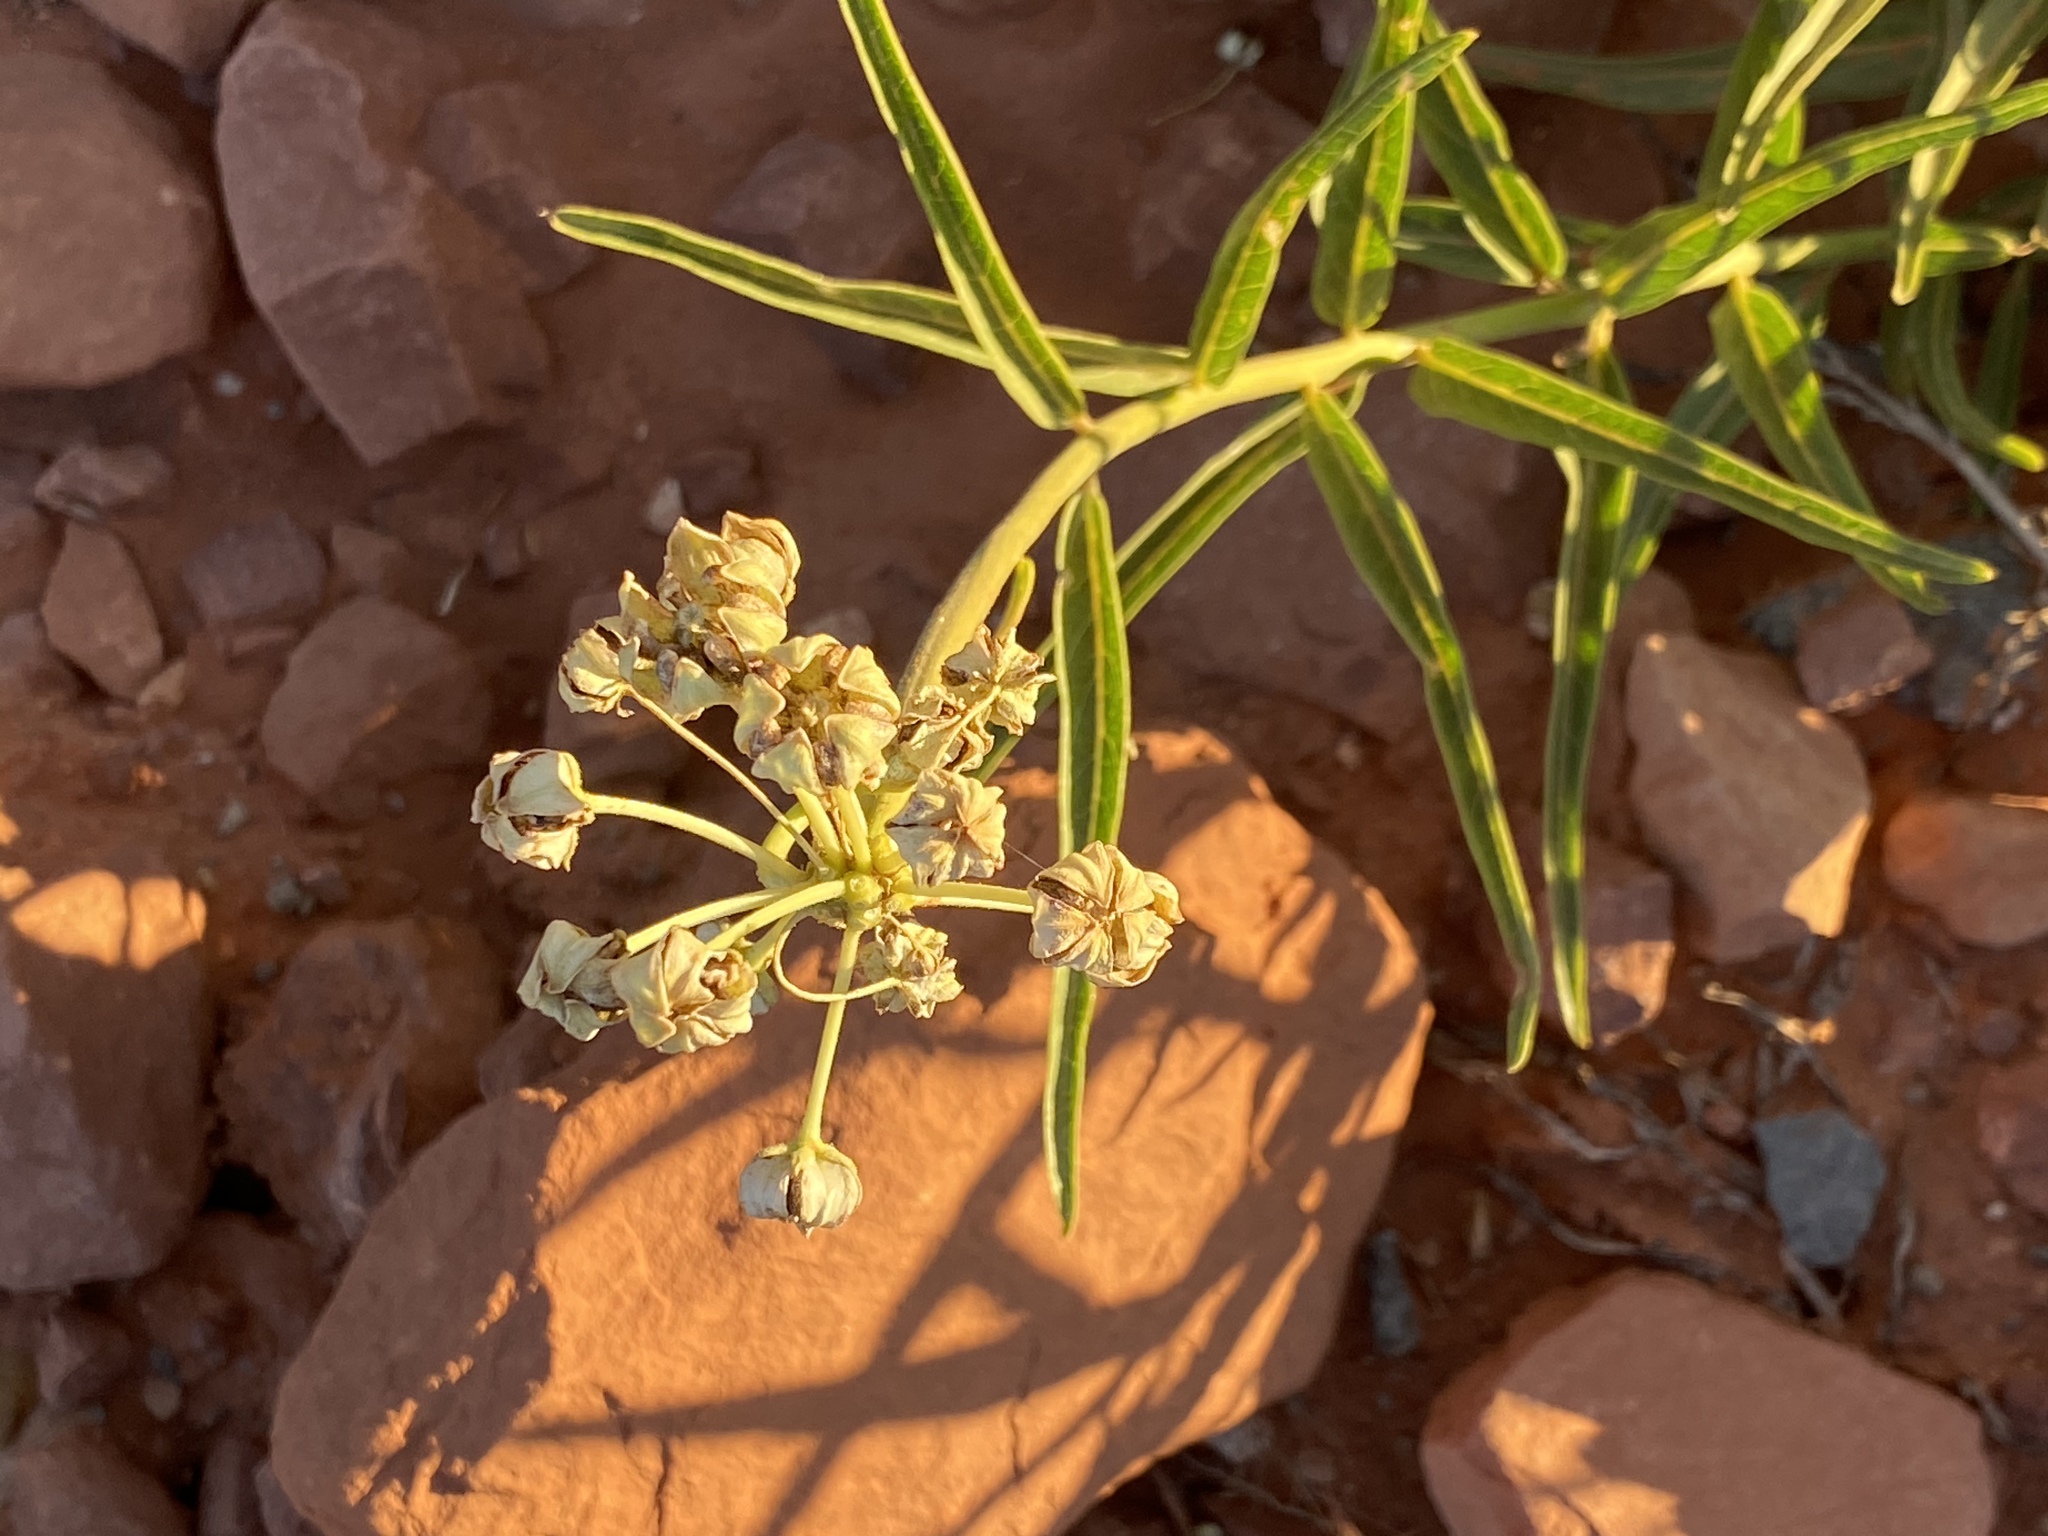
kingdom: Plantae
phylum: Tracheophyta
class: Magnoliopsida
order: Gentianales
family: Apocynaceae
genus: Asclepias
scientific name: Asclepias asperula
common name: Antelope horns
